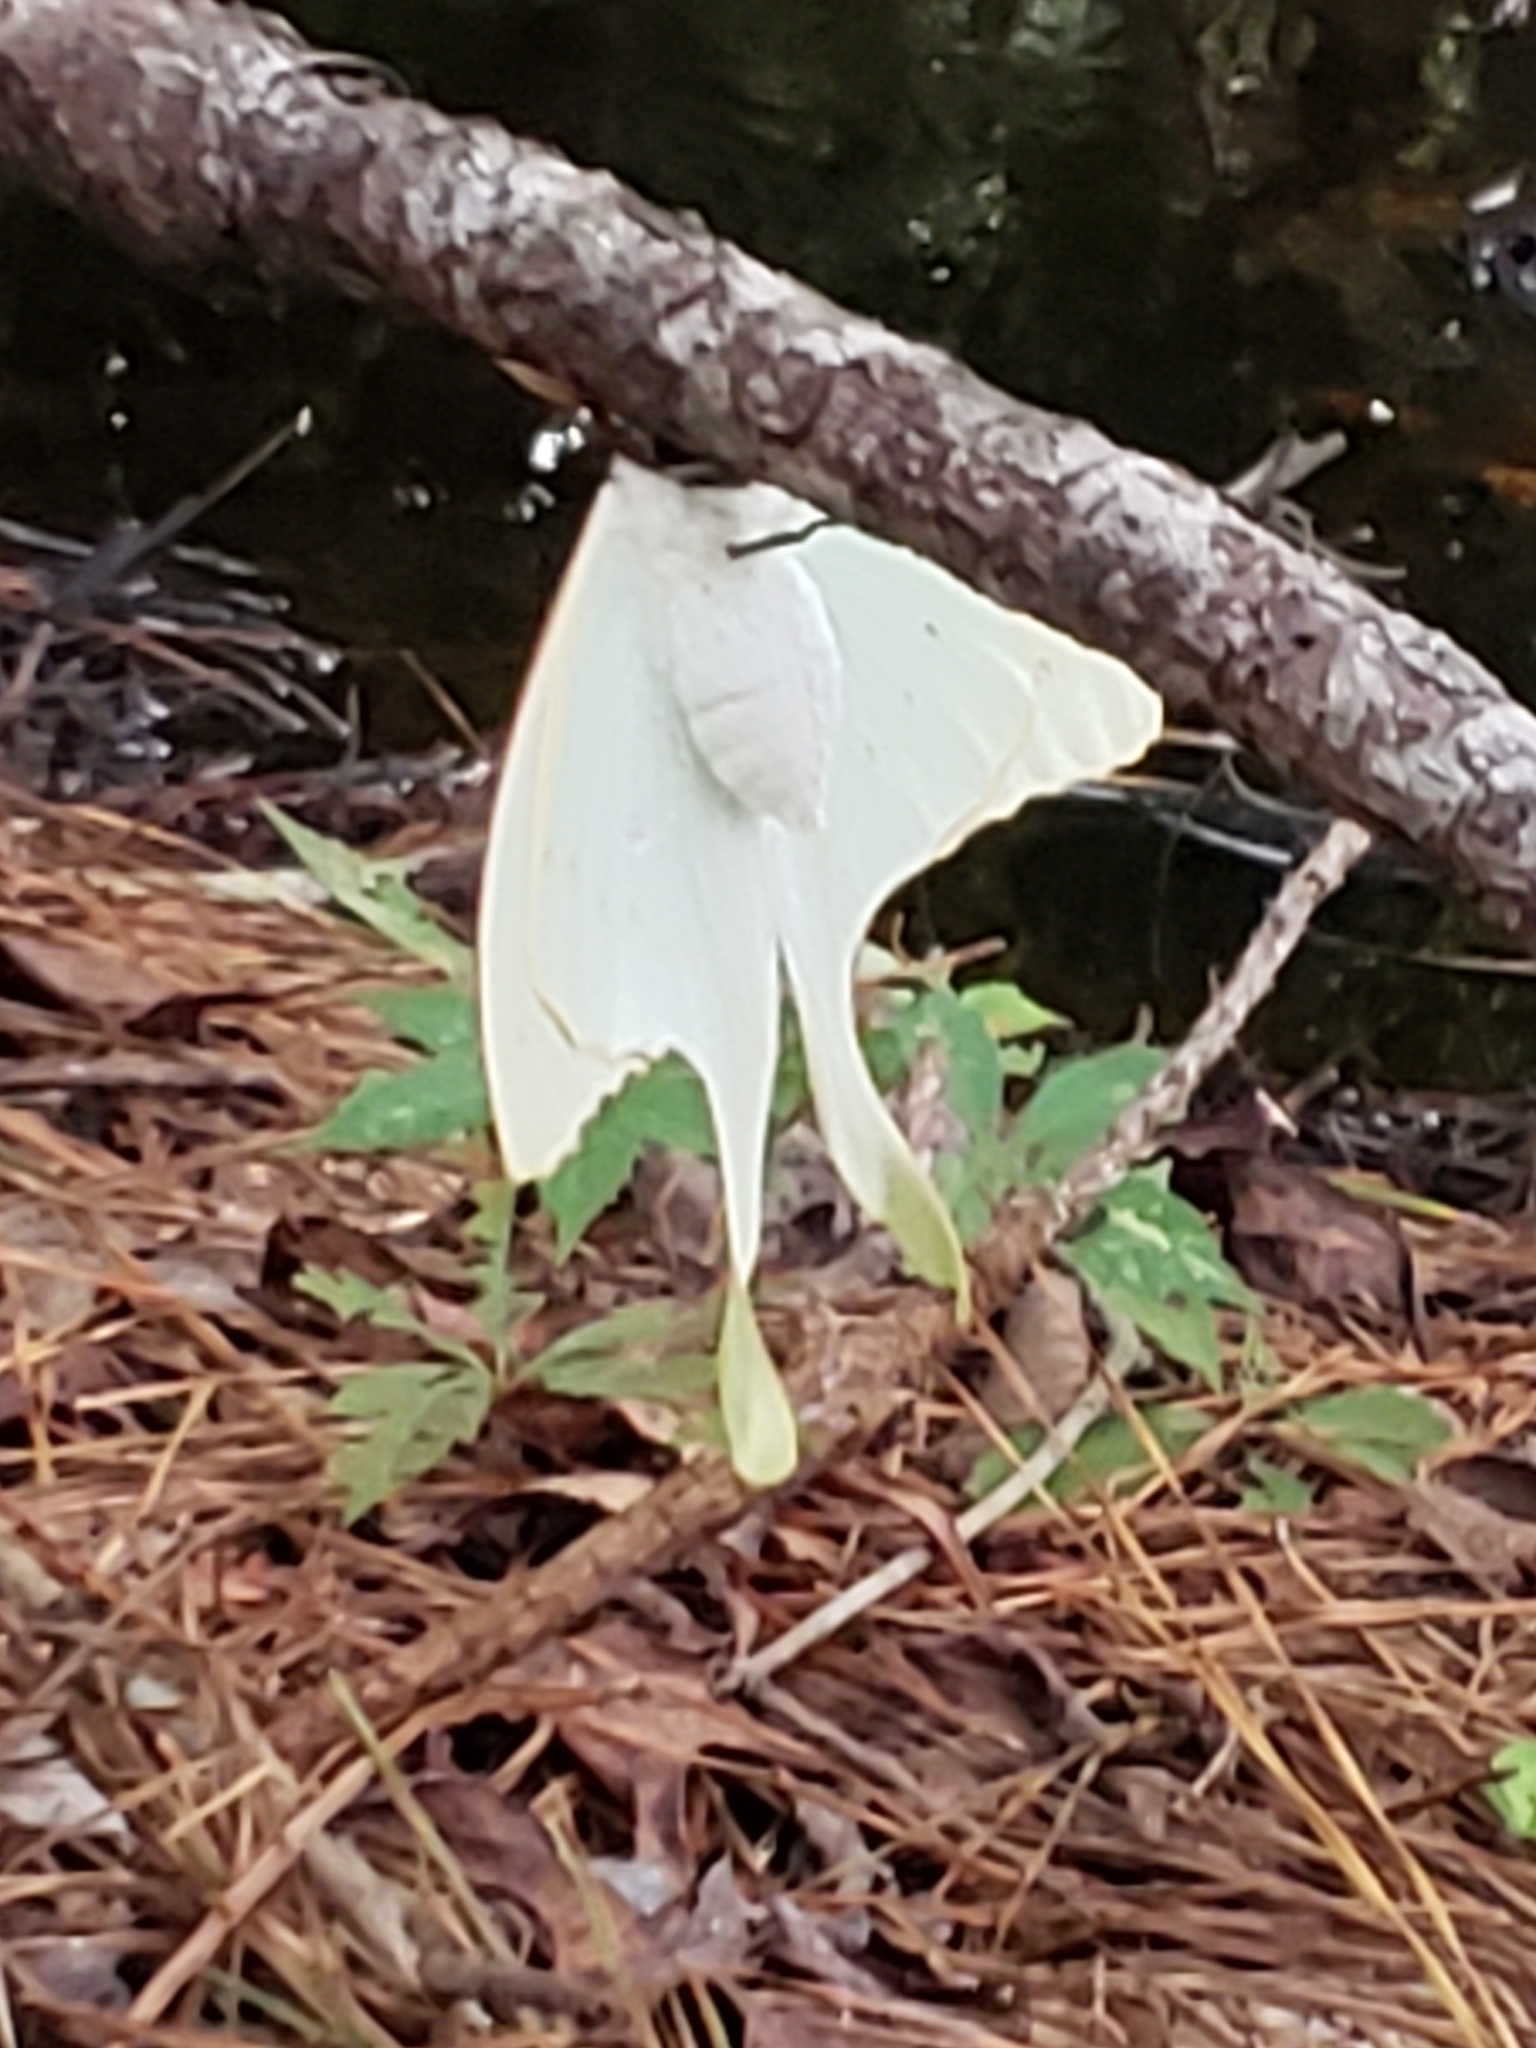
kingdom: Animalia
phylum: Arthropoda
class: Insecta
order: Lepidoptera
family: Saturniidae
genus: Actias
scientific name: Actias luna
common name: Luna moth
